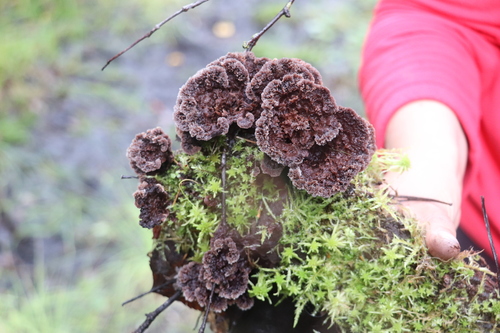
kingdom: Fungi
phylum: Basidiomycota
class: Agaricomycetes
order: Thelephorales
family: Thelephoraceae
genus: Thelephora
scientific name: Thelephora terrestris
